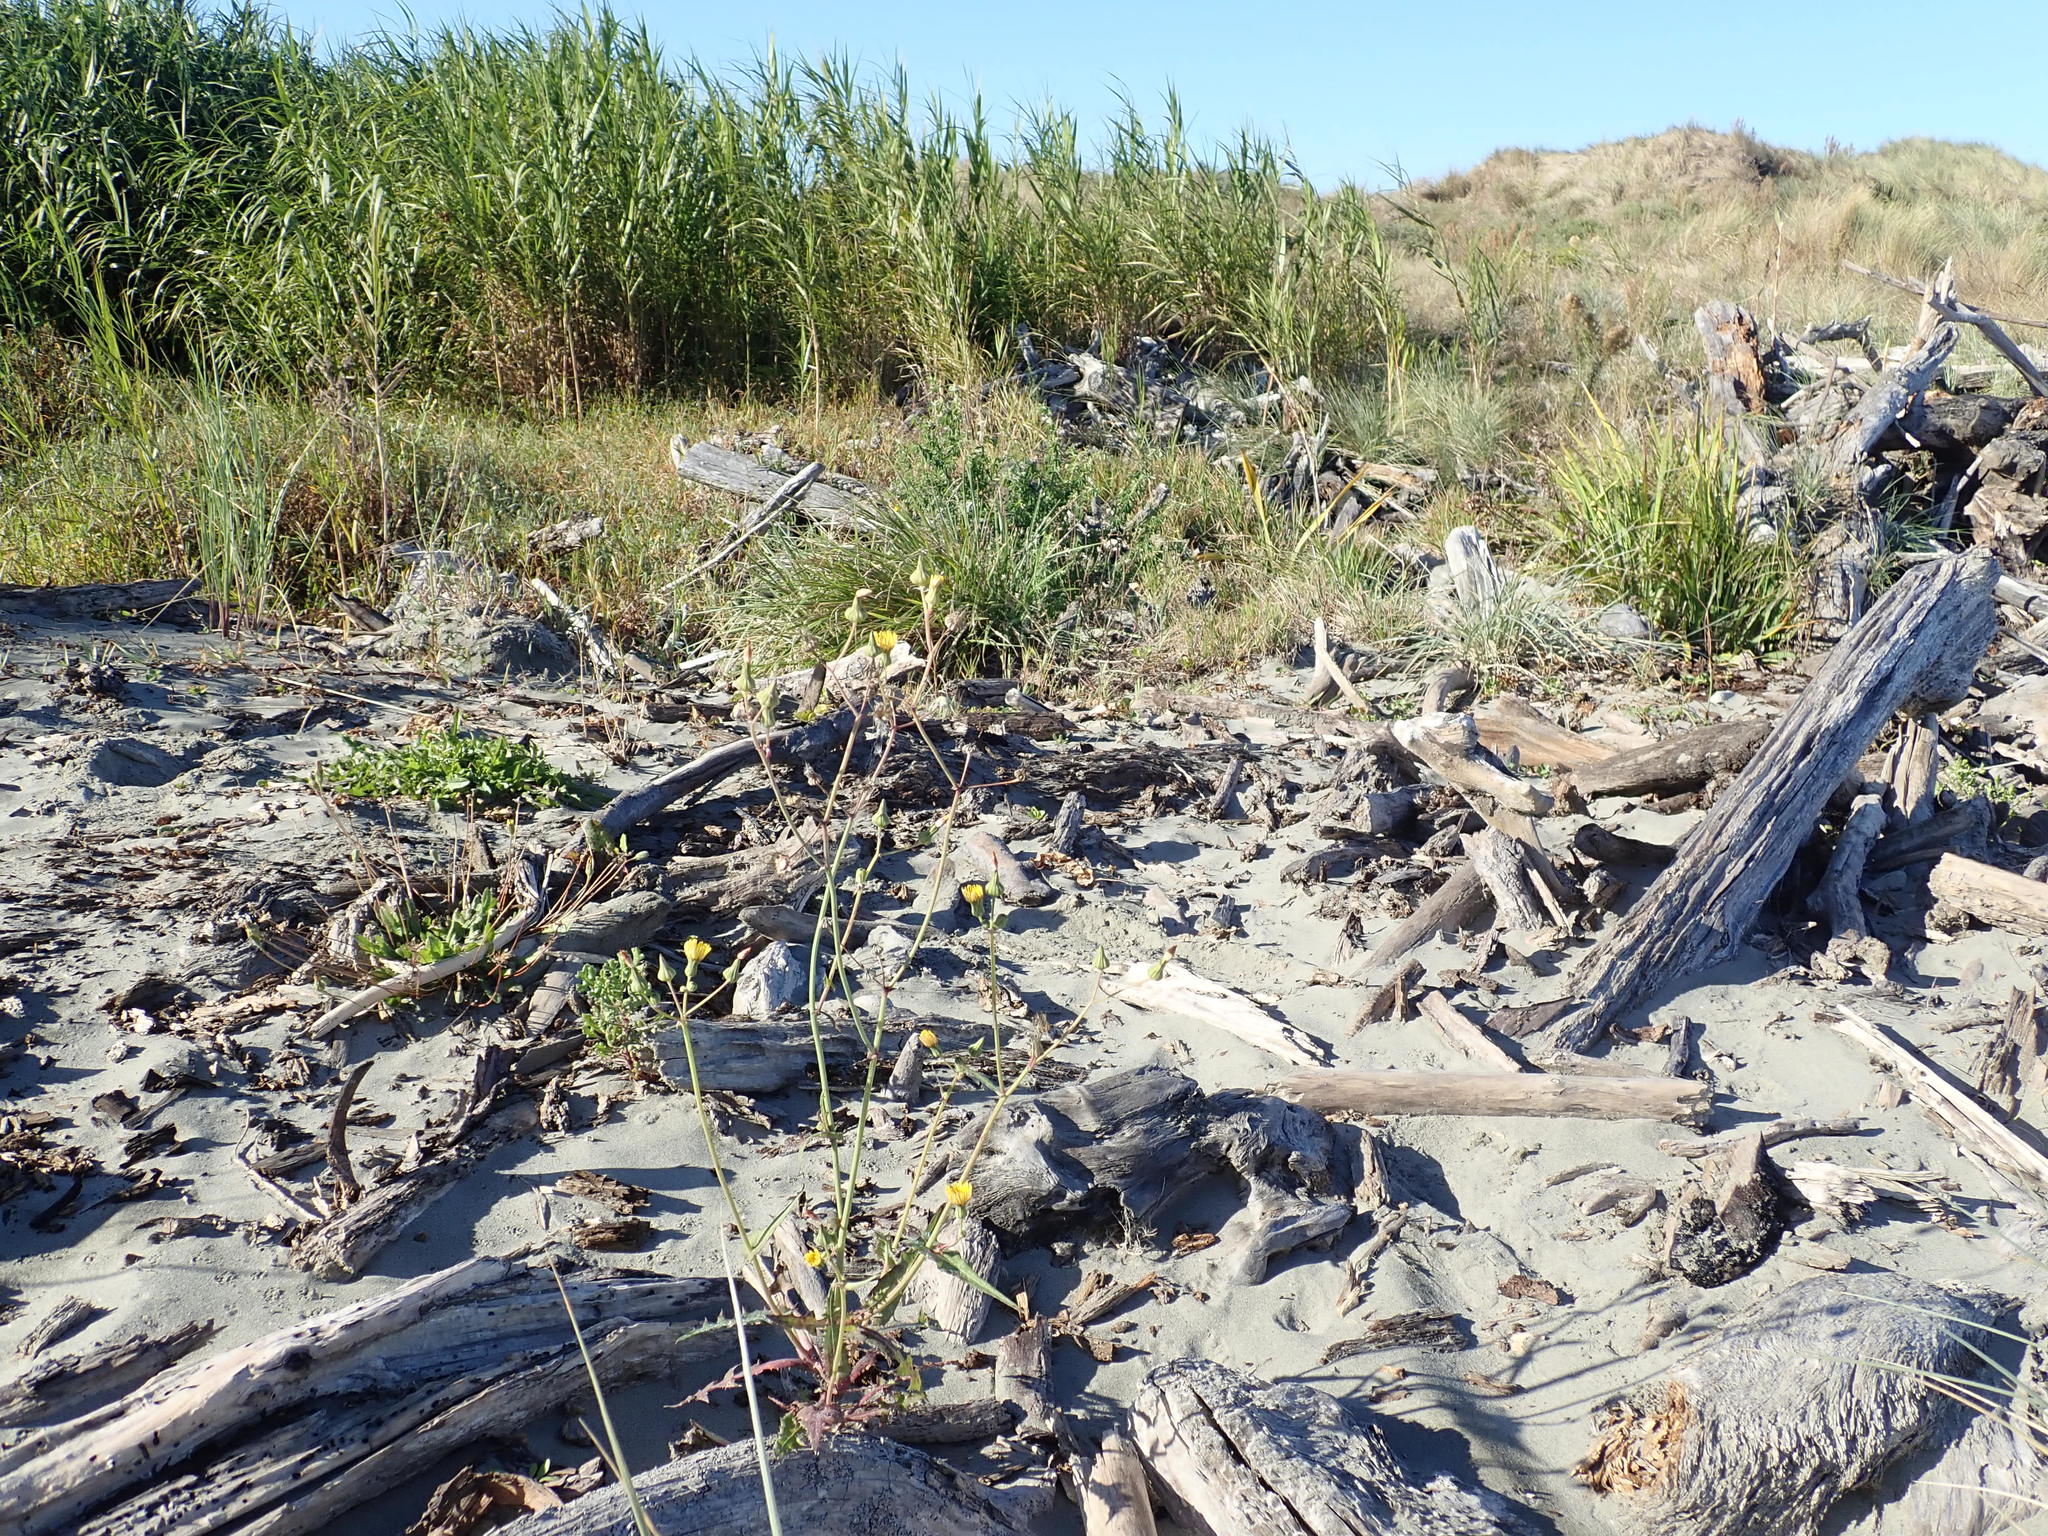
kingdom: Plantae
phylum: Tracheophyta
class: Magnoliopsida
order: Asterales
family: Asteraceae
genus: Sonchus
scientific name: Sonchus oleraceus
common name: Common sowthistle
